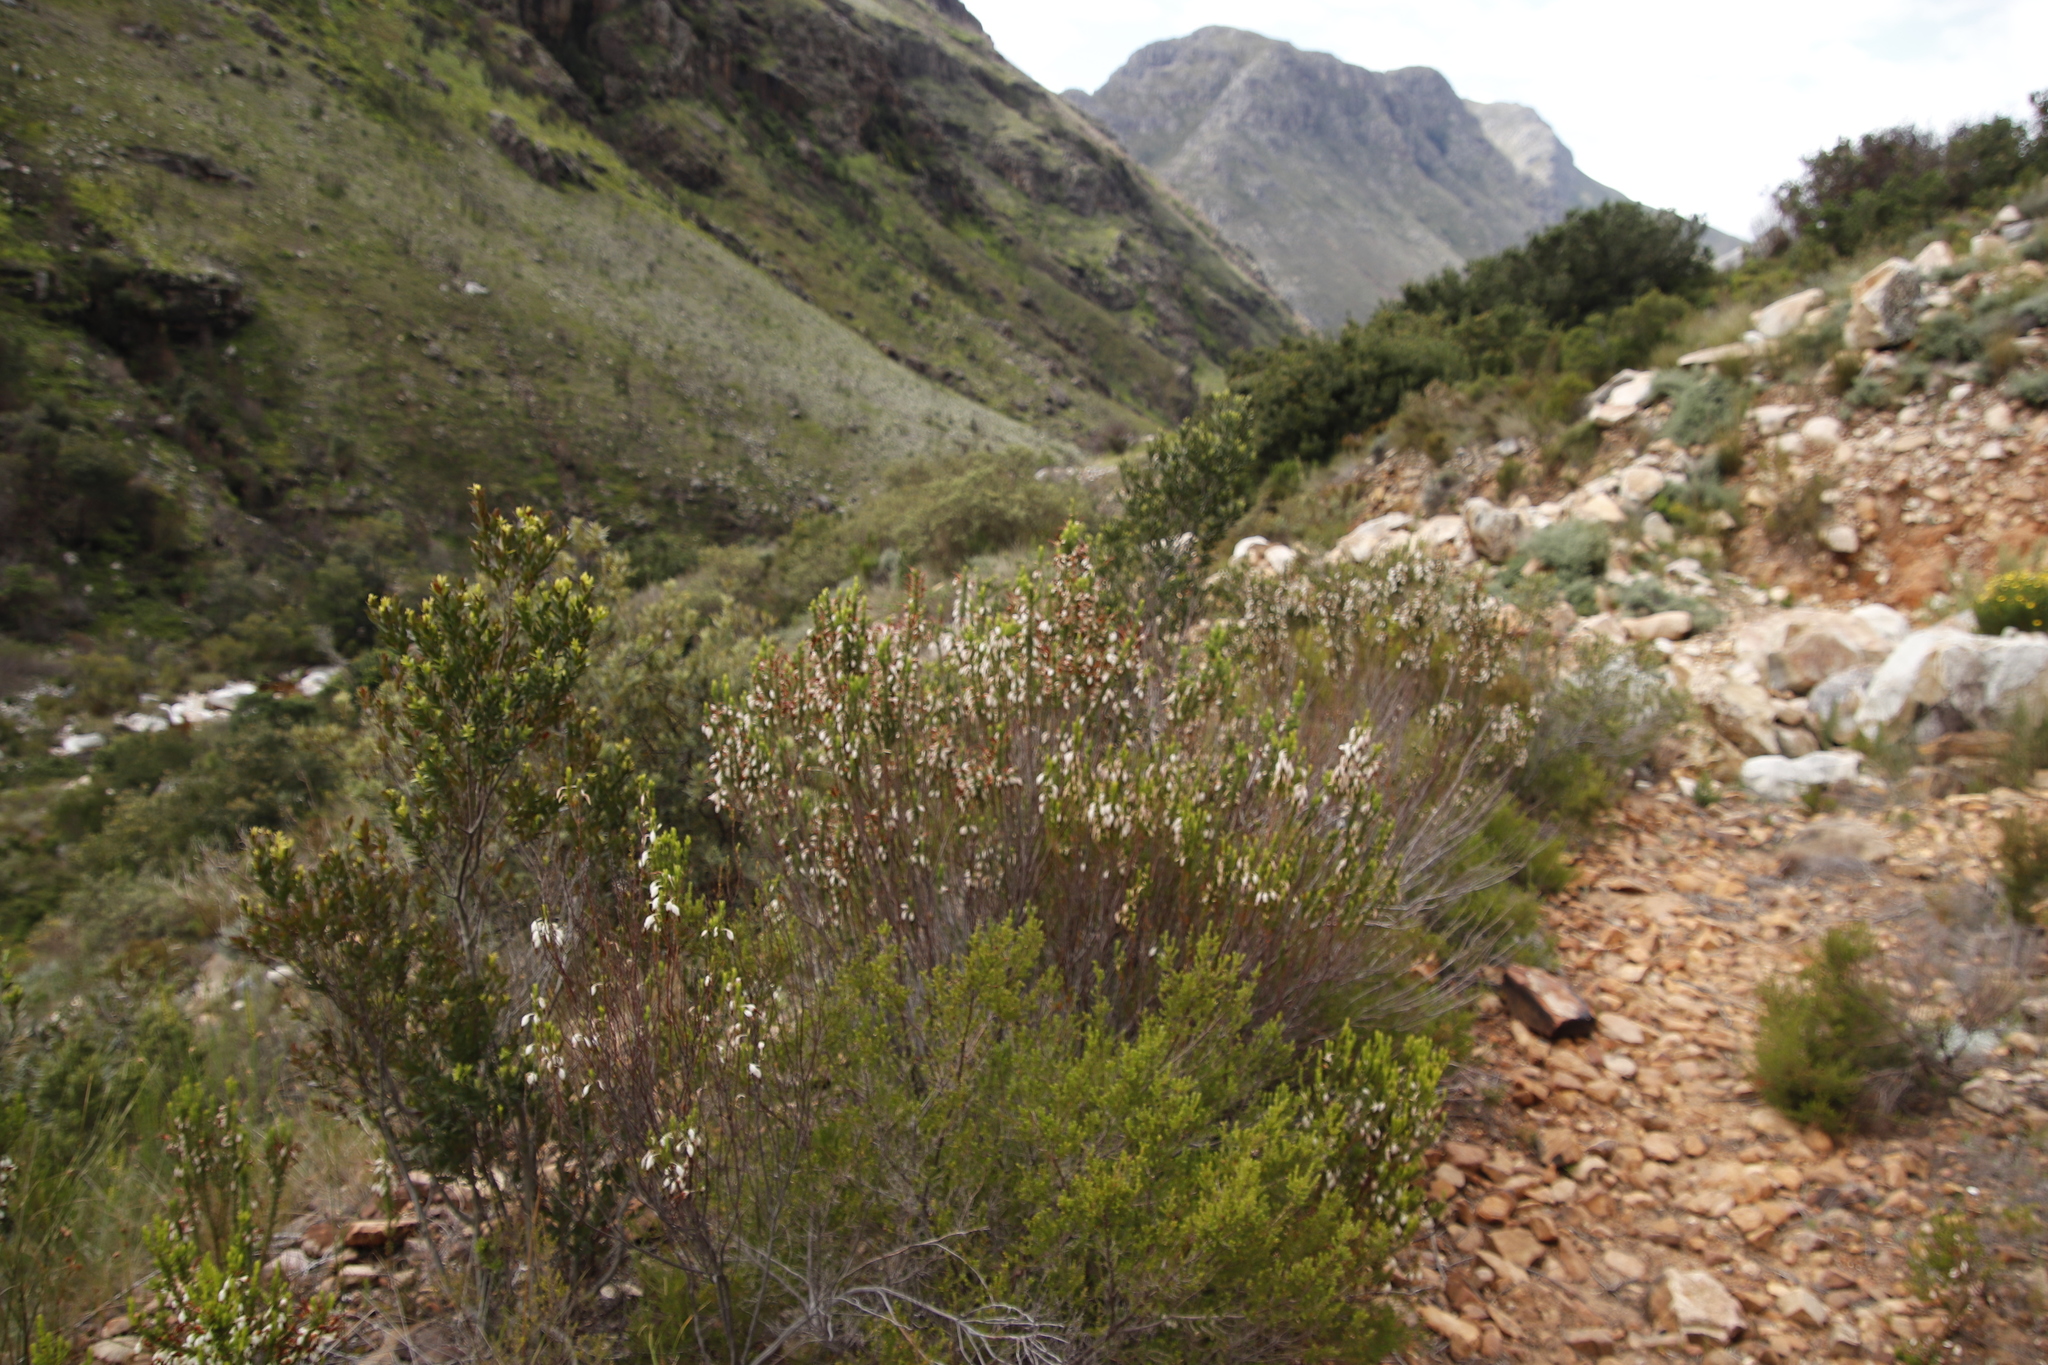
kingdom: Plantae
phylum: Tracheophyta
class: Magnoliopsida
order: Ericales
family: Ericaceae
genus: Erica
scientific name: Erica plukenetii
